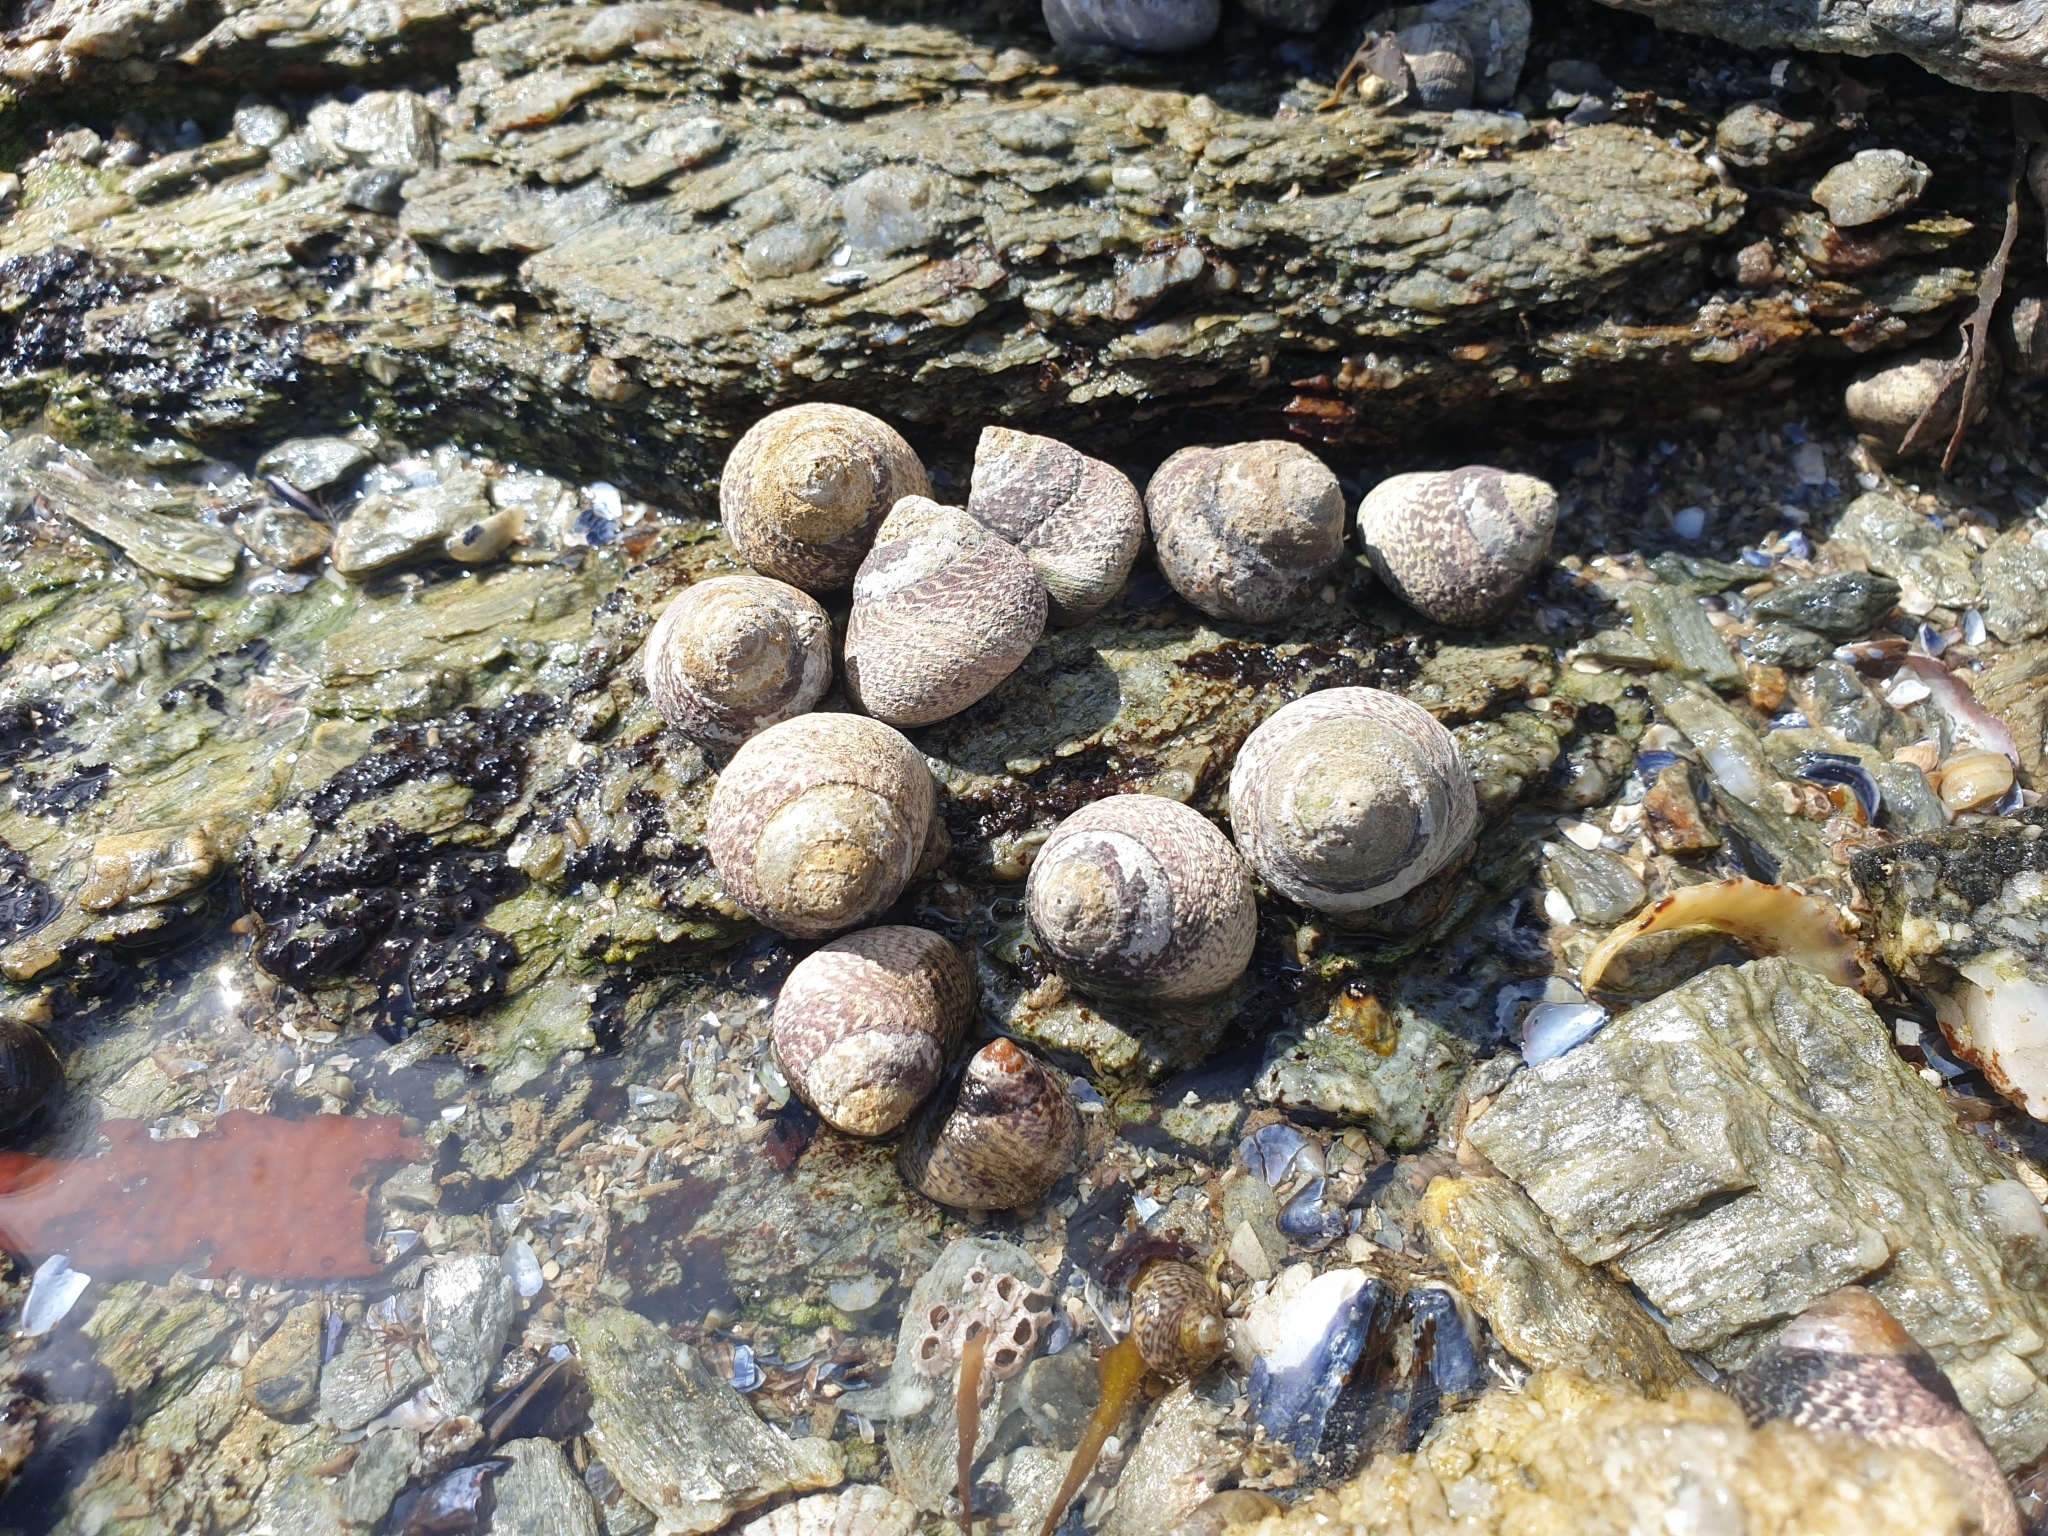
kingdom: Animalia
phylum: Mollusca
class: Gastropoda
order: Trochida
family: Trochidae
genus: Phorcus
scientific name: Phorcus lineatus
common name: Toothed top shell
